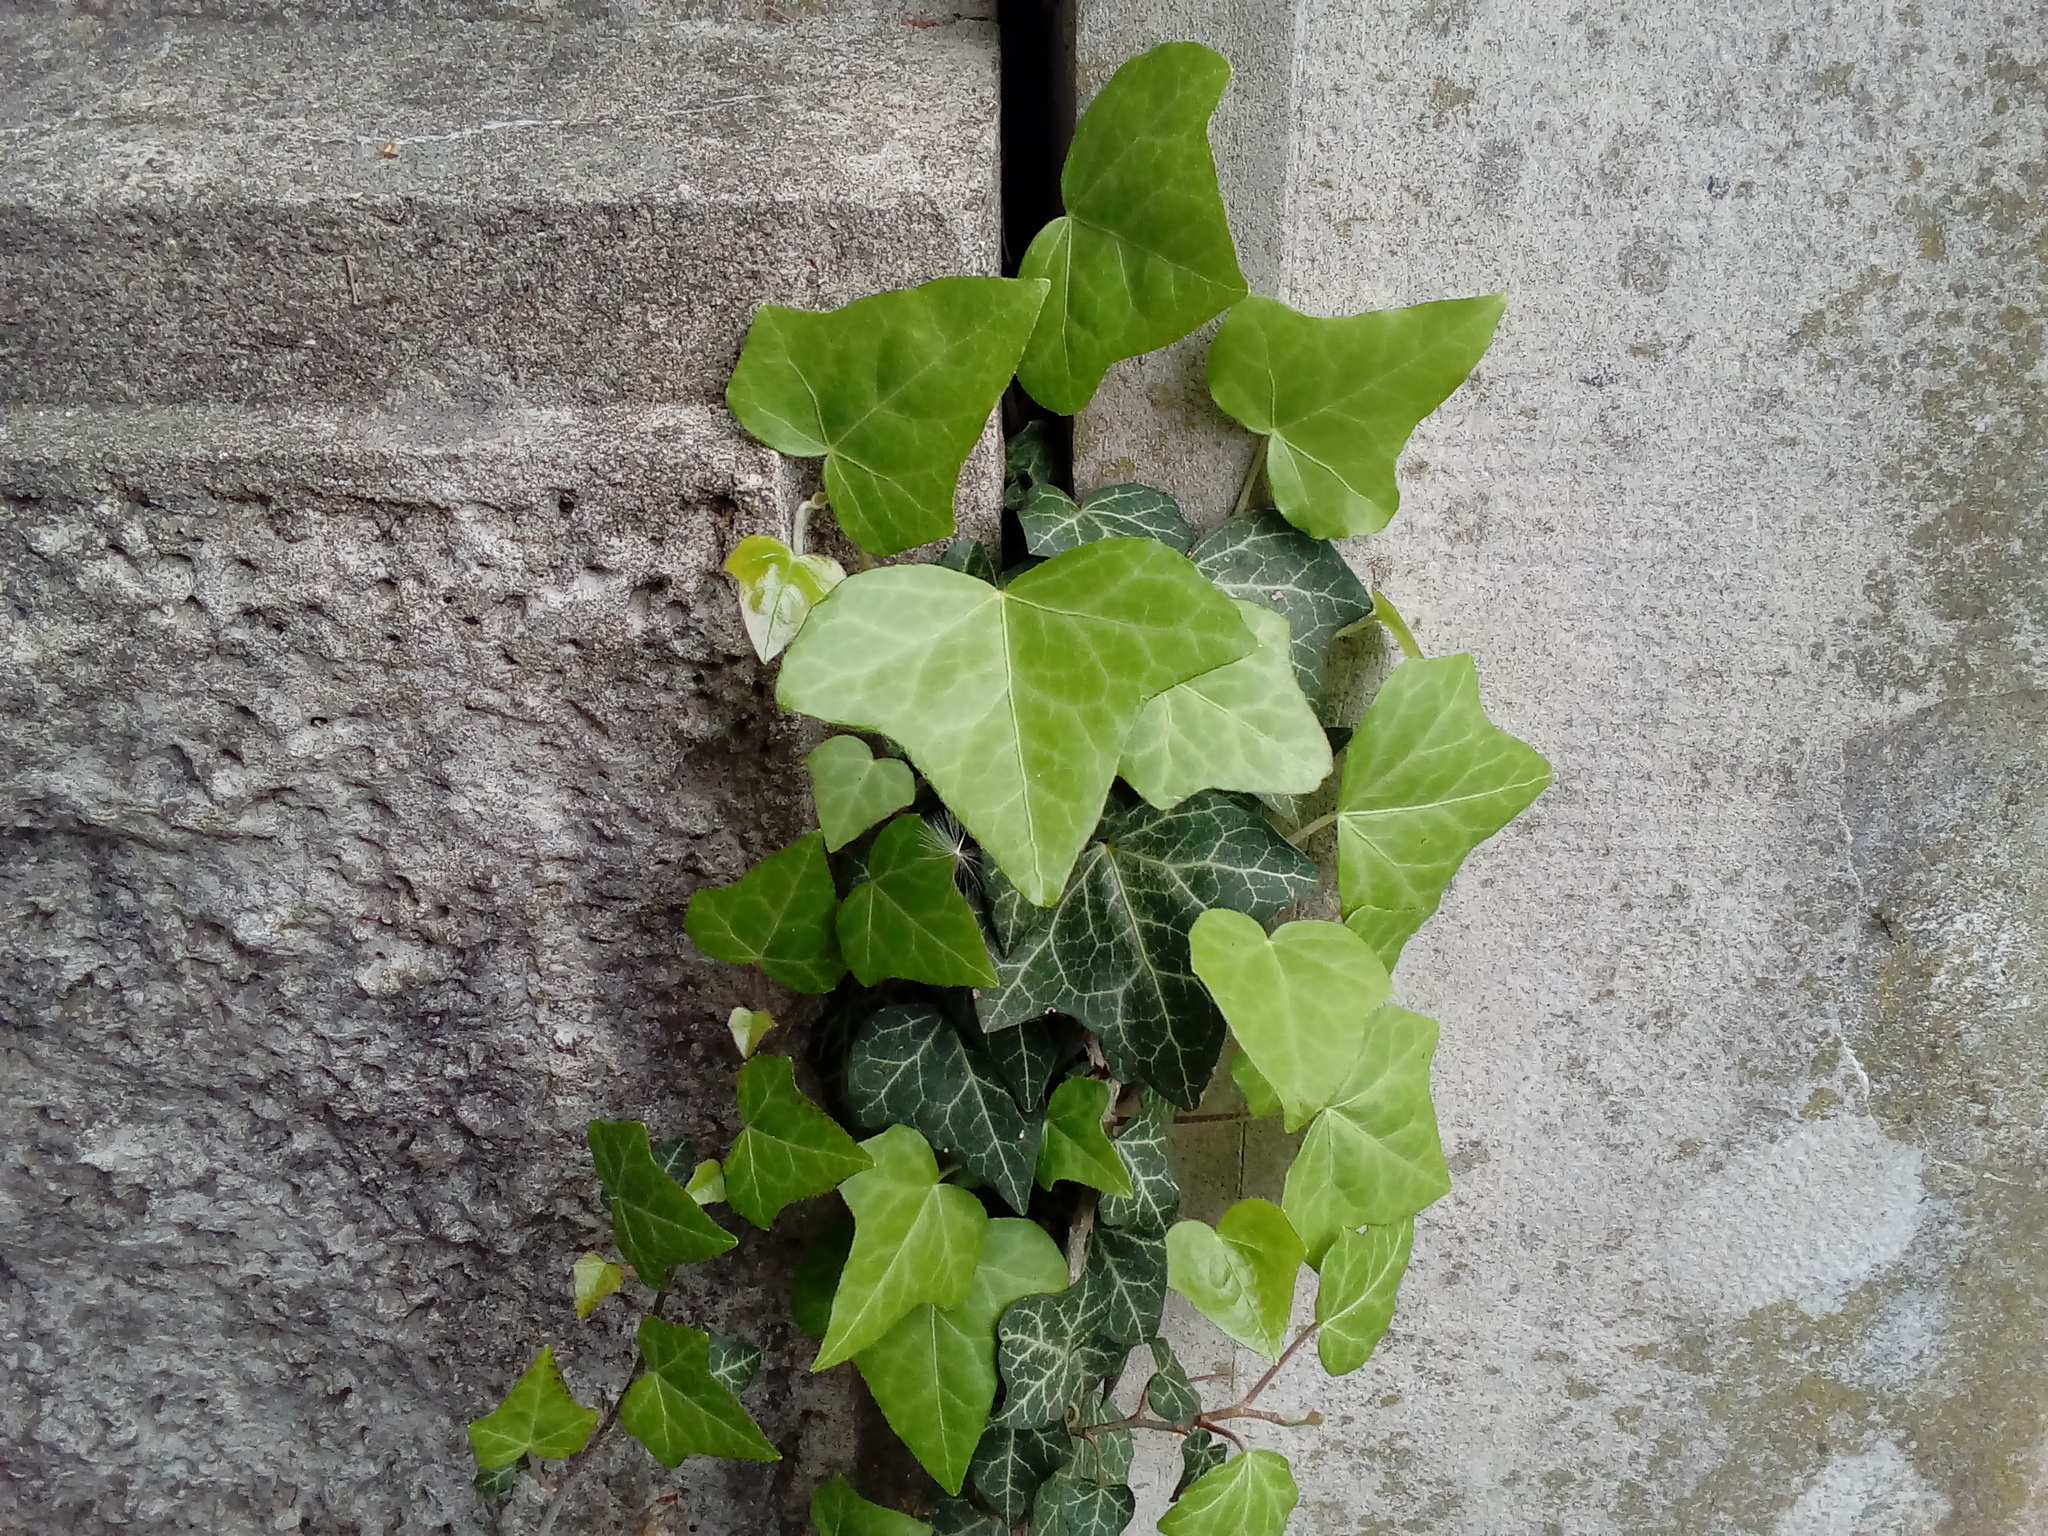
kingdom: Plantae
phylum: Tracheophyta
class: Magnoliopsida
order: Apiales
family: Araliaceae
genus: Hedera
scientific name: Hedera helix
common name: Ivy
